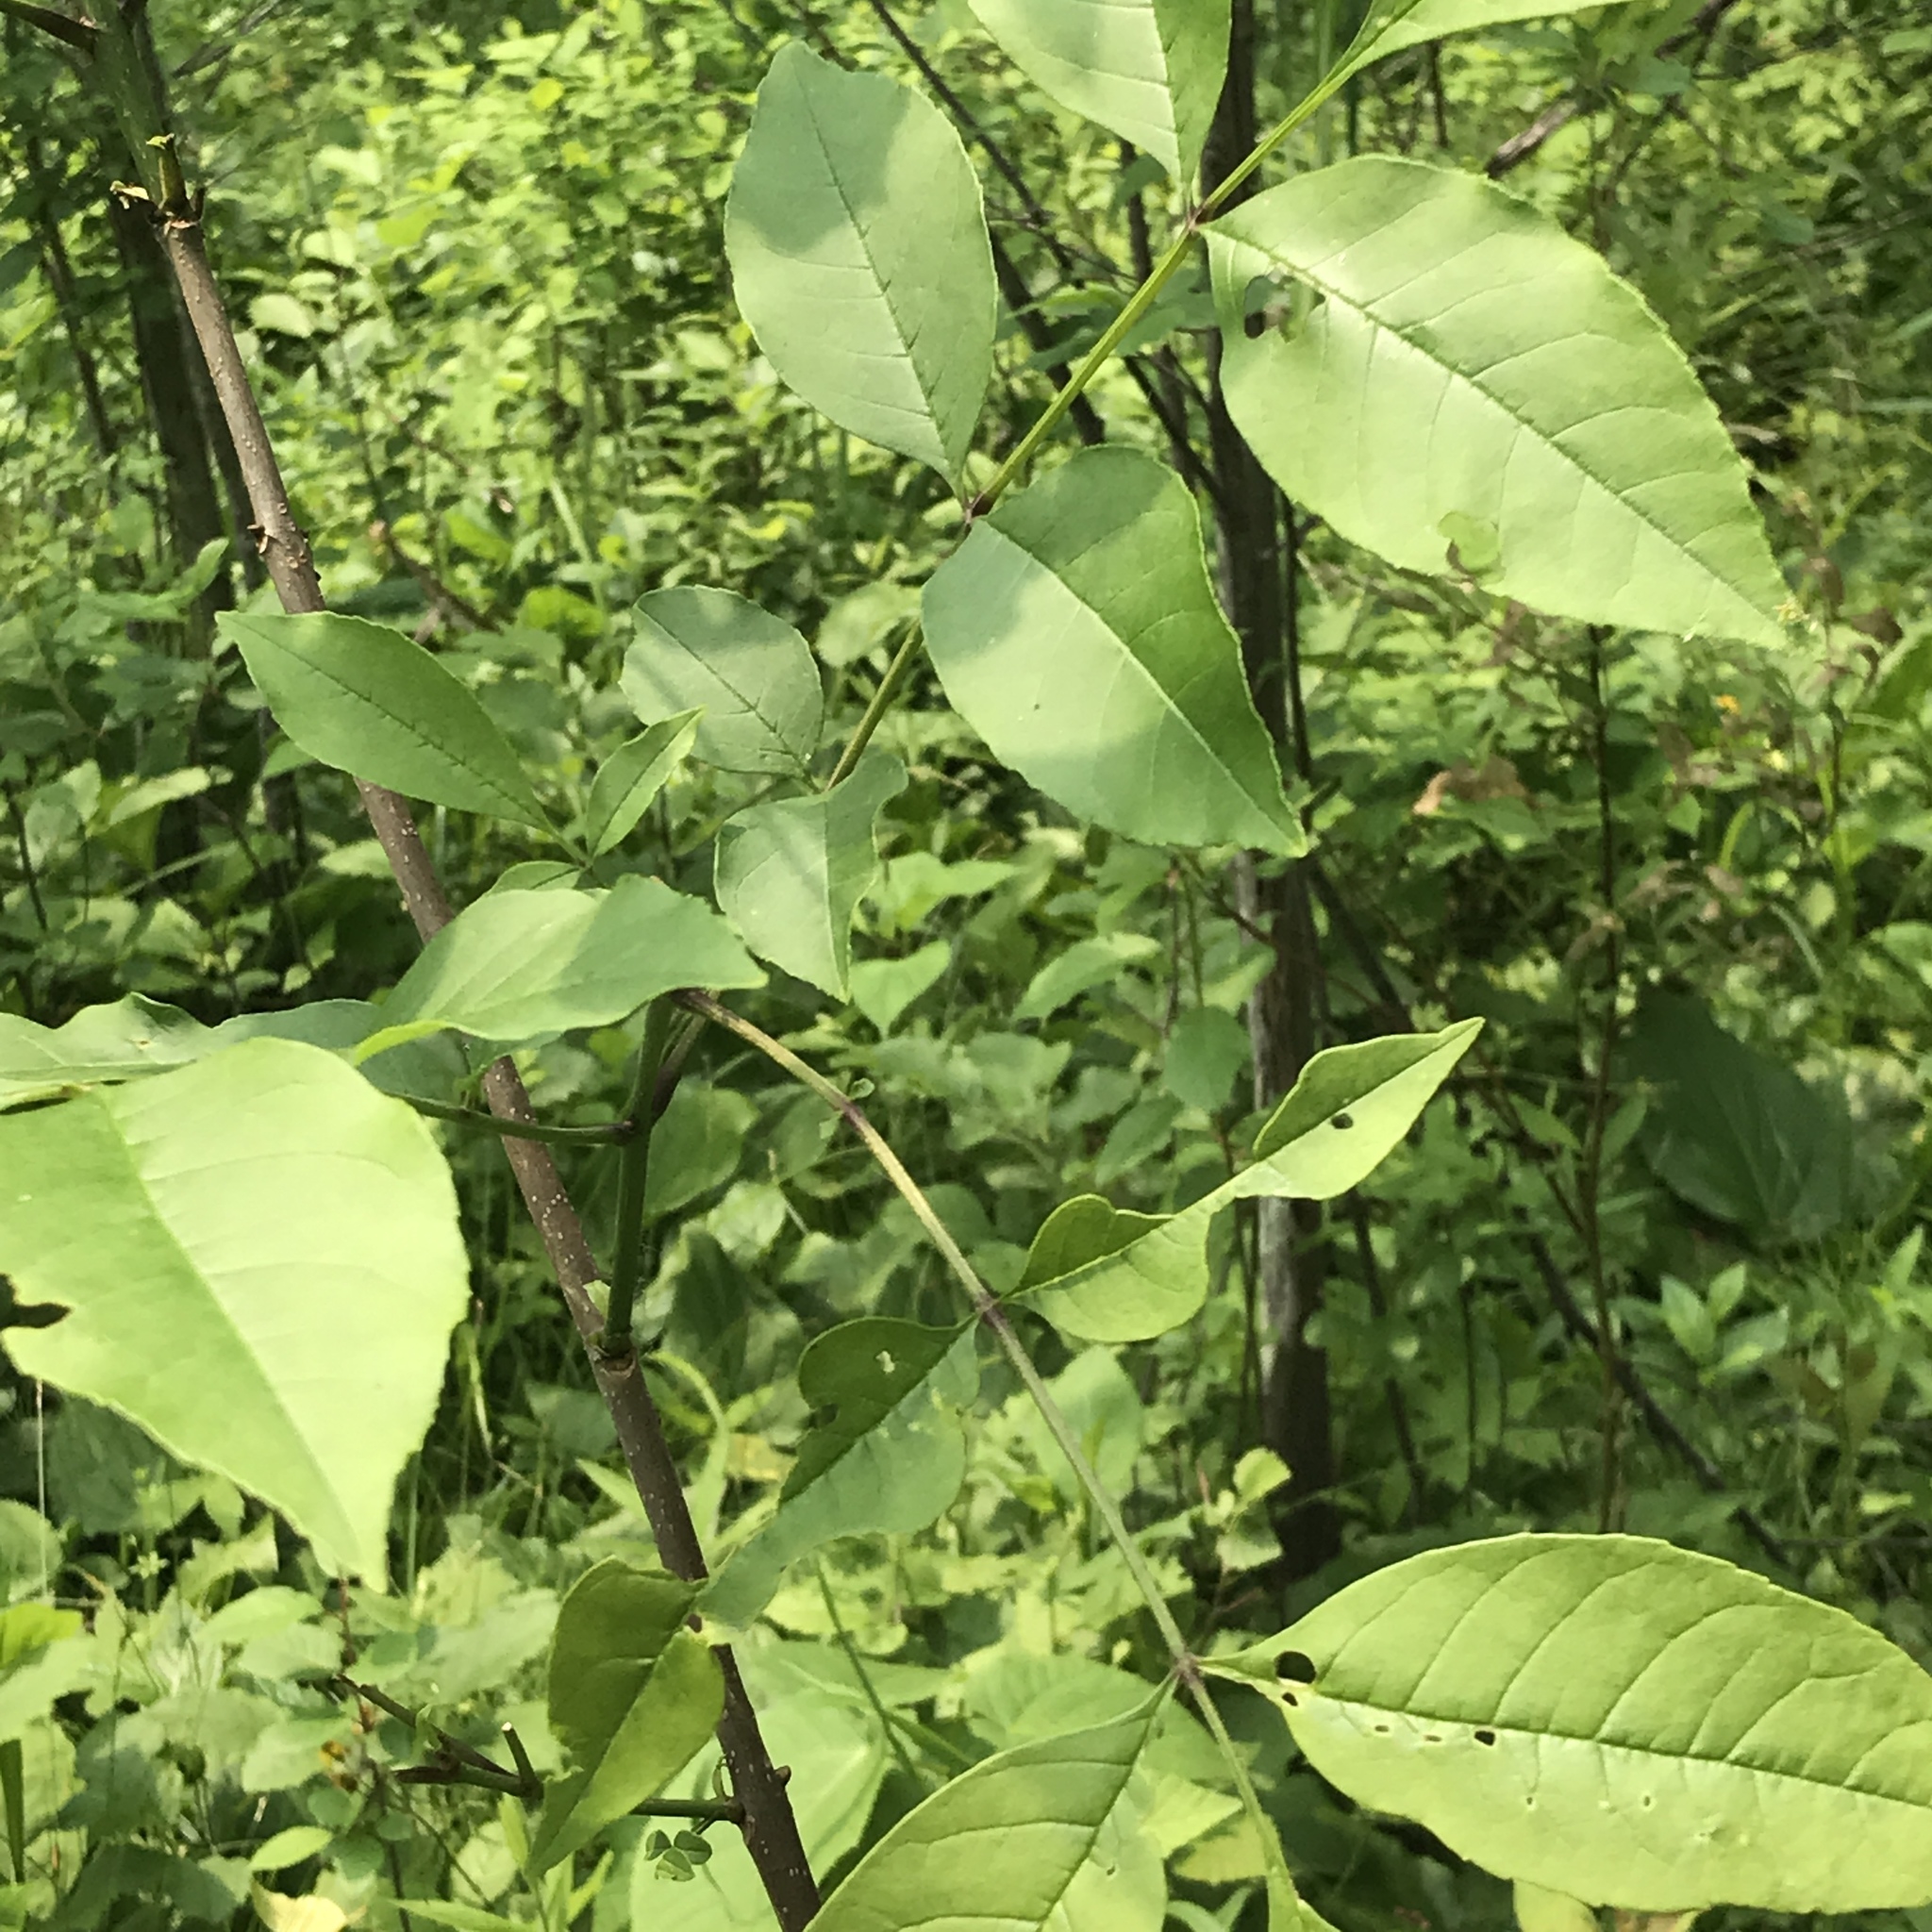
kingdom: Plantae
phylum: Tracheophyta
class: Magnoliopsida
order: Lamiales
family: Oleaceae
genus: Fraxinus
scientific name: Fraxinus pennsylvanica
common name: Green ash
